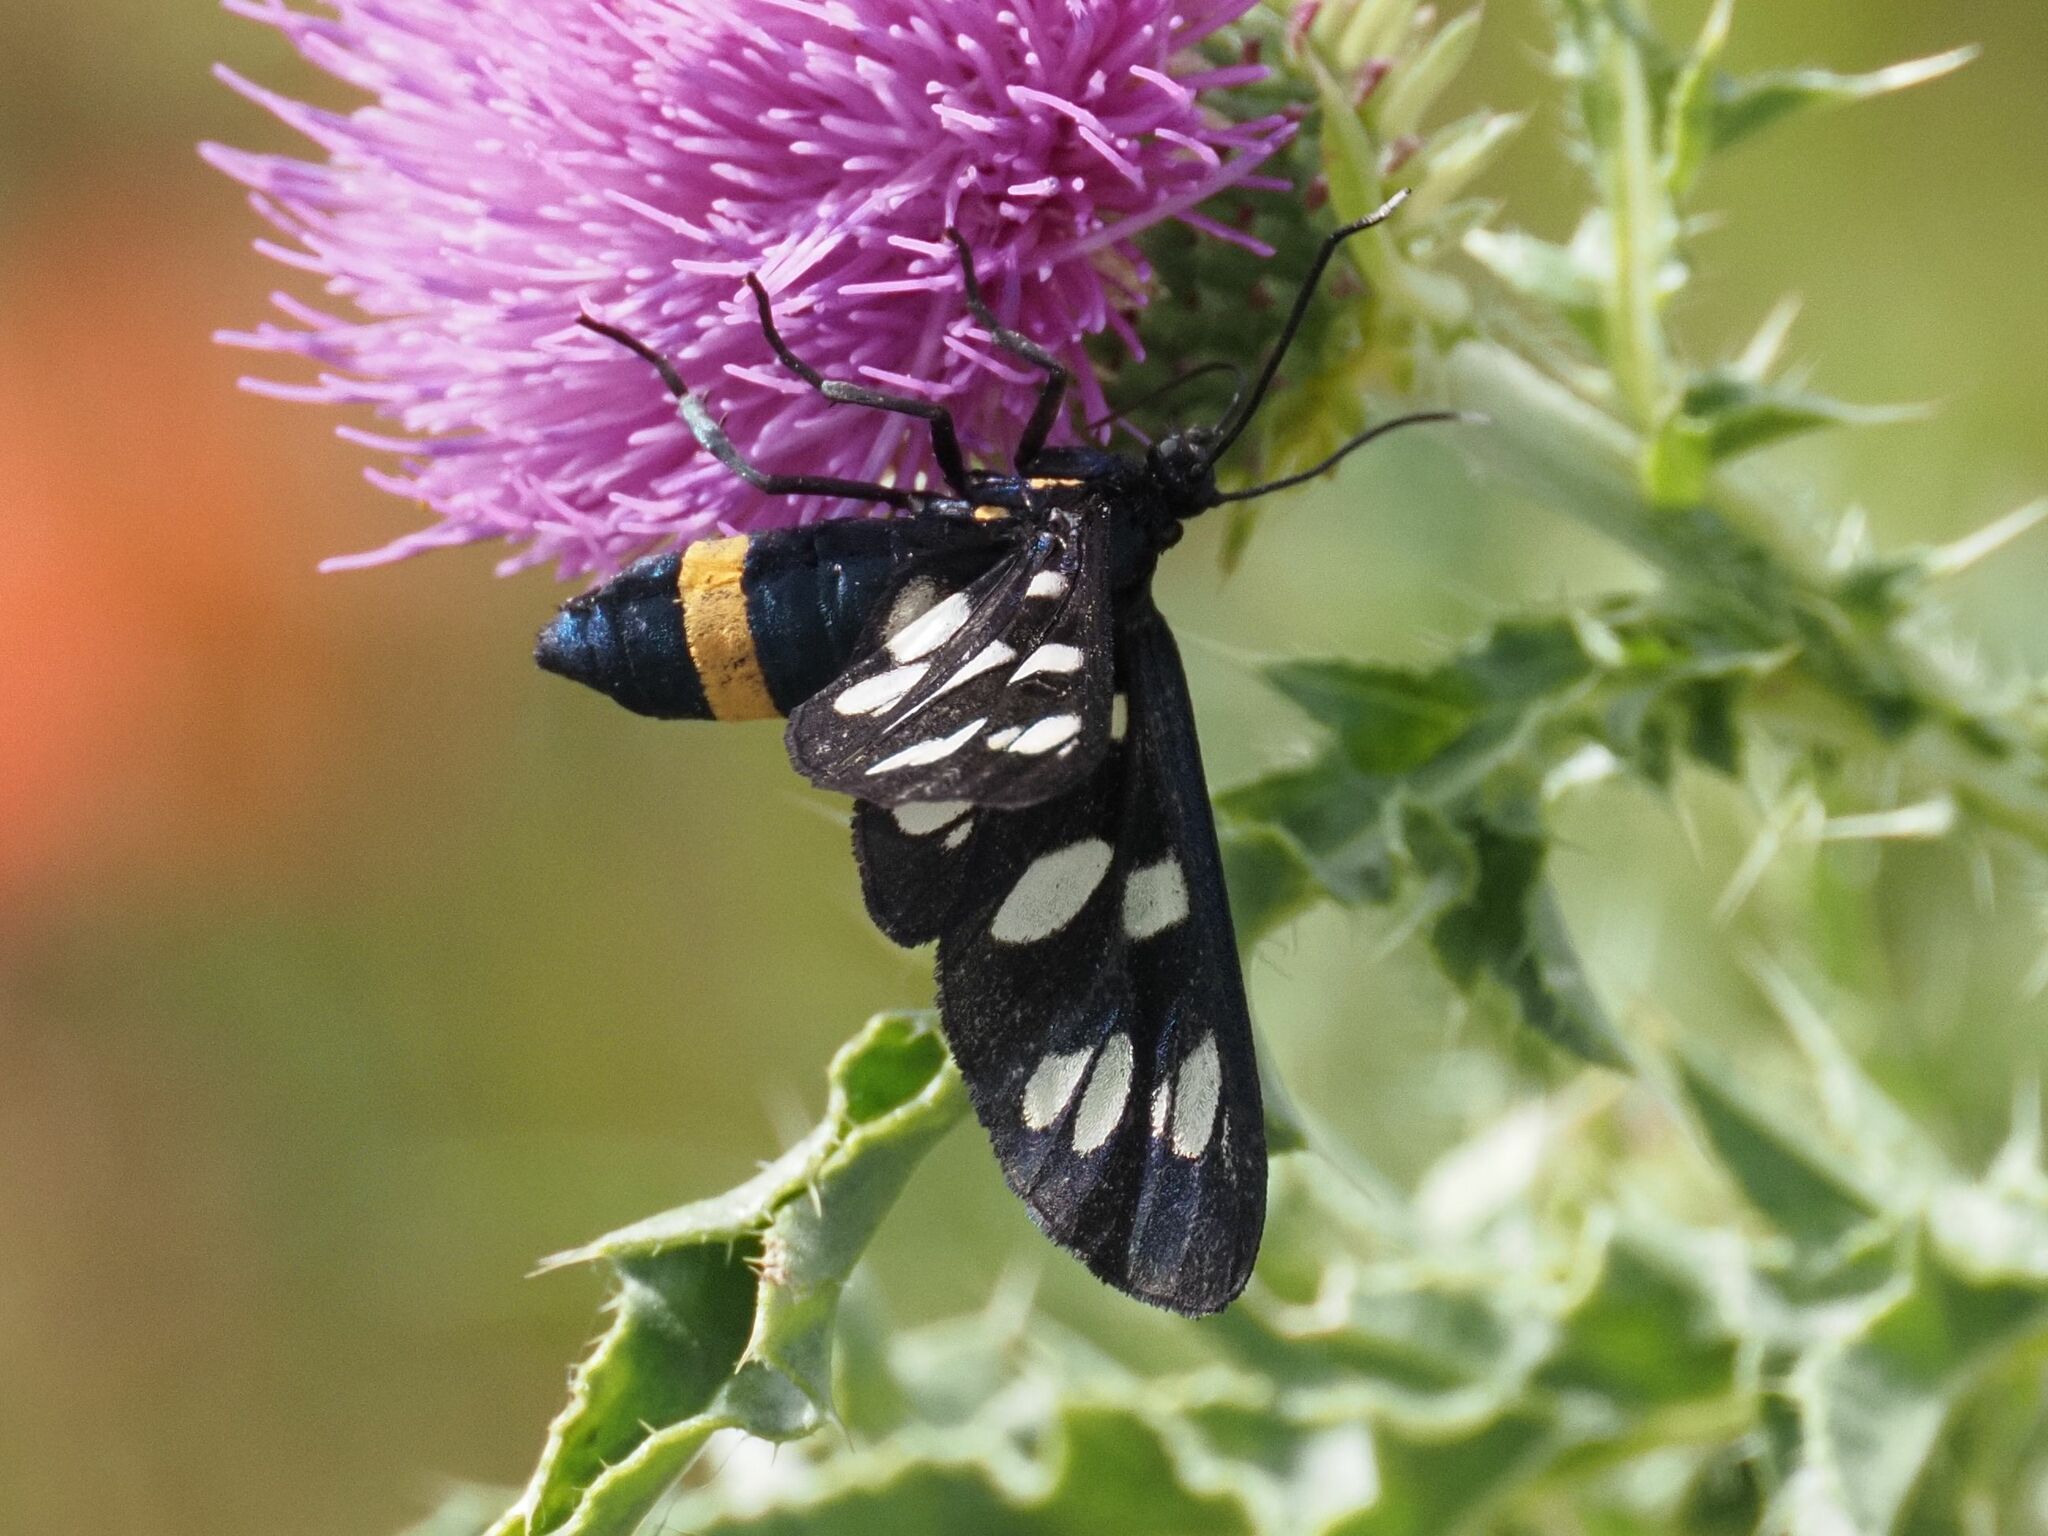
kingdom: Animalia
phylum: Arthropoda
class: Insecta
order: Lepidoptera
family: Erebidae
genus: Amata
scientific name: Amata phegea
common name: Nine-spotted
